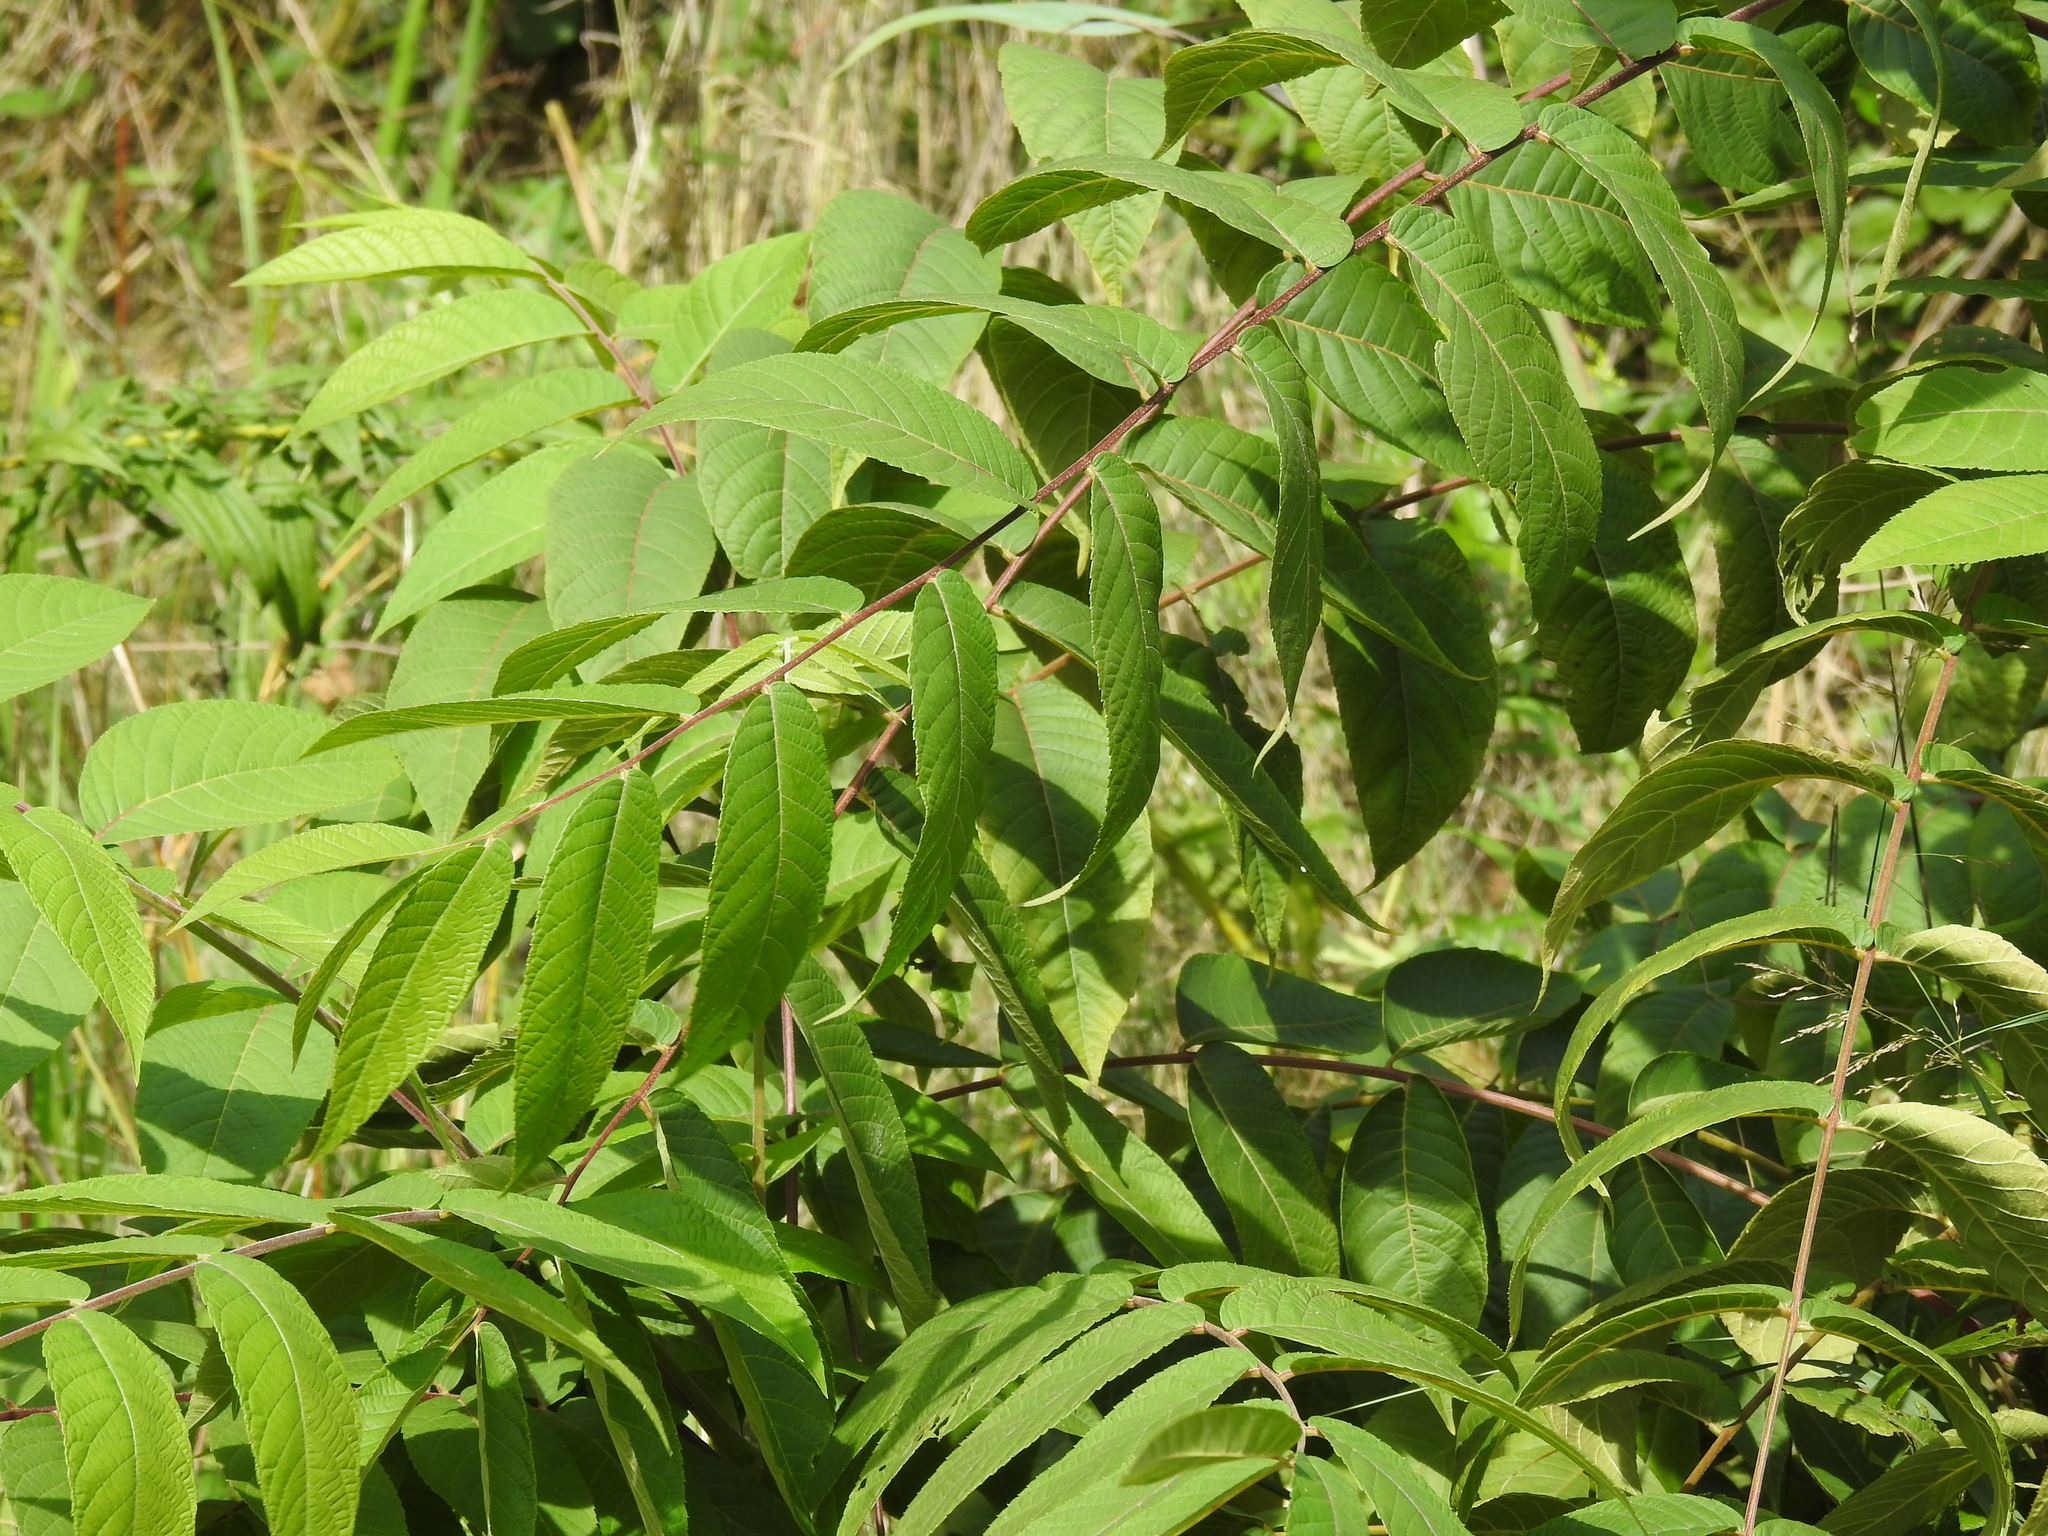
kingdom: Plantae
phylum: Tracheophyta
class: Magnoliopsida
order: Sapindales
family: Simaroubaceae
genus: Ailanthus
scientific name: Ailanthus altissima
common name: Tree-of-heaven
